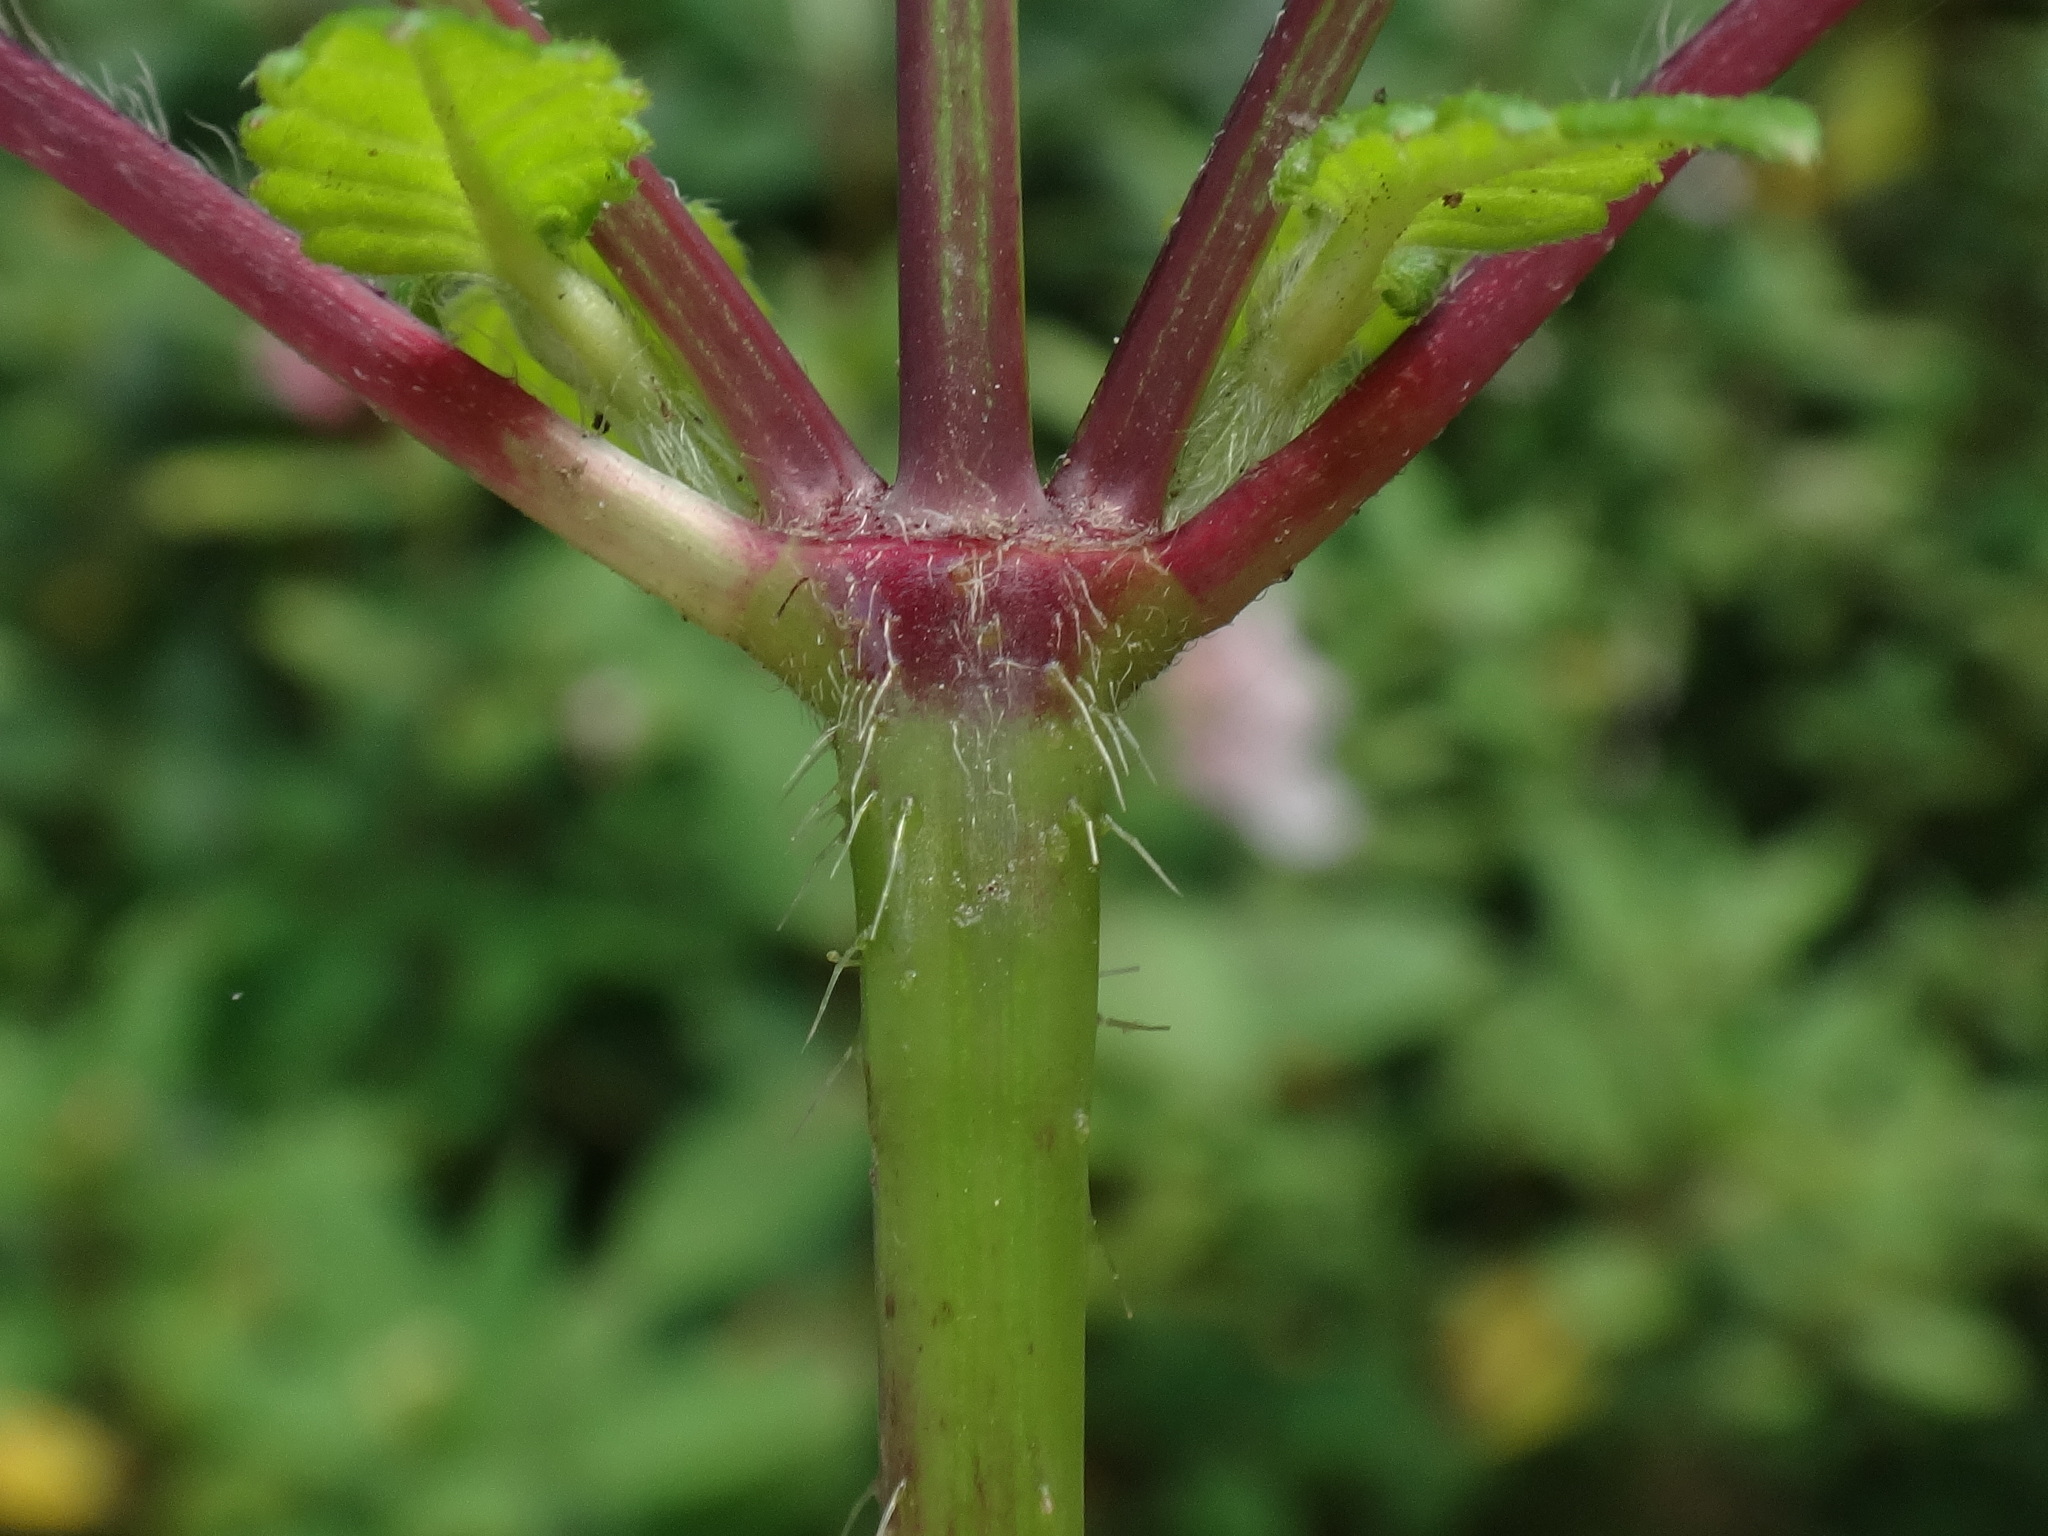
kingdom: Plantae
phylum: Tracheophyta
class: Magnoliopsida
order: Lamiales
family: Lamiaceae
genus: Galeopsis
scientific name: Galeopsis tetrahit
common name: Common hemp-nettle
